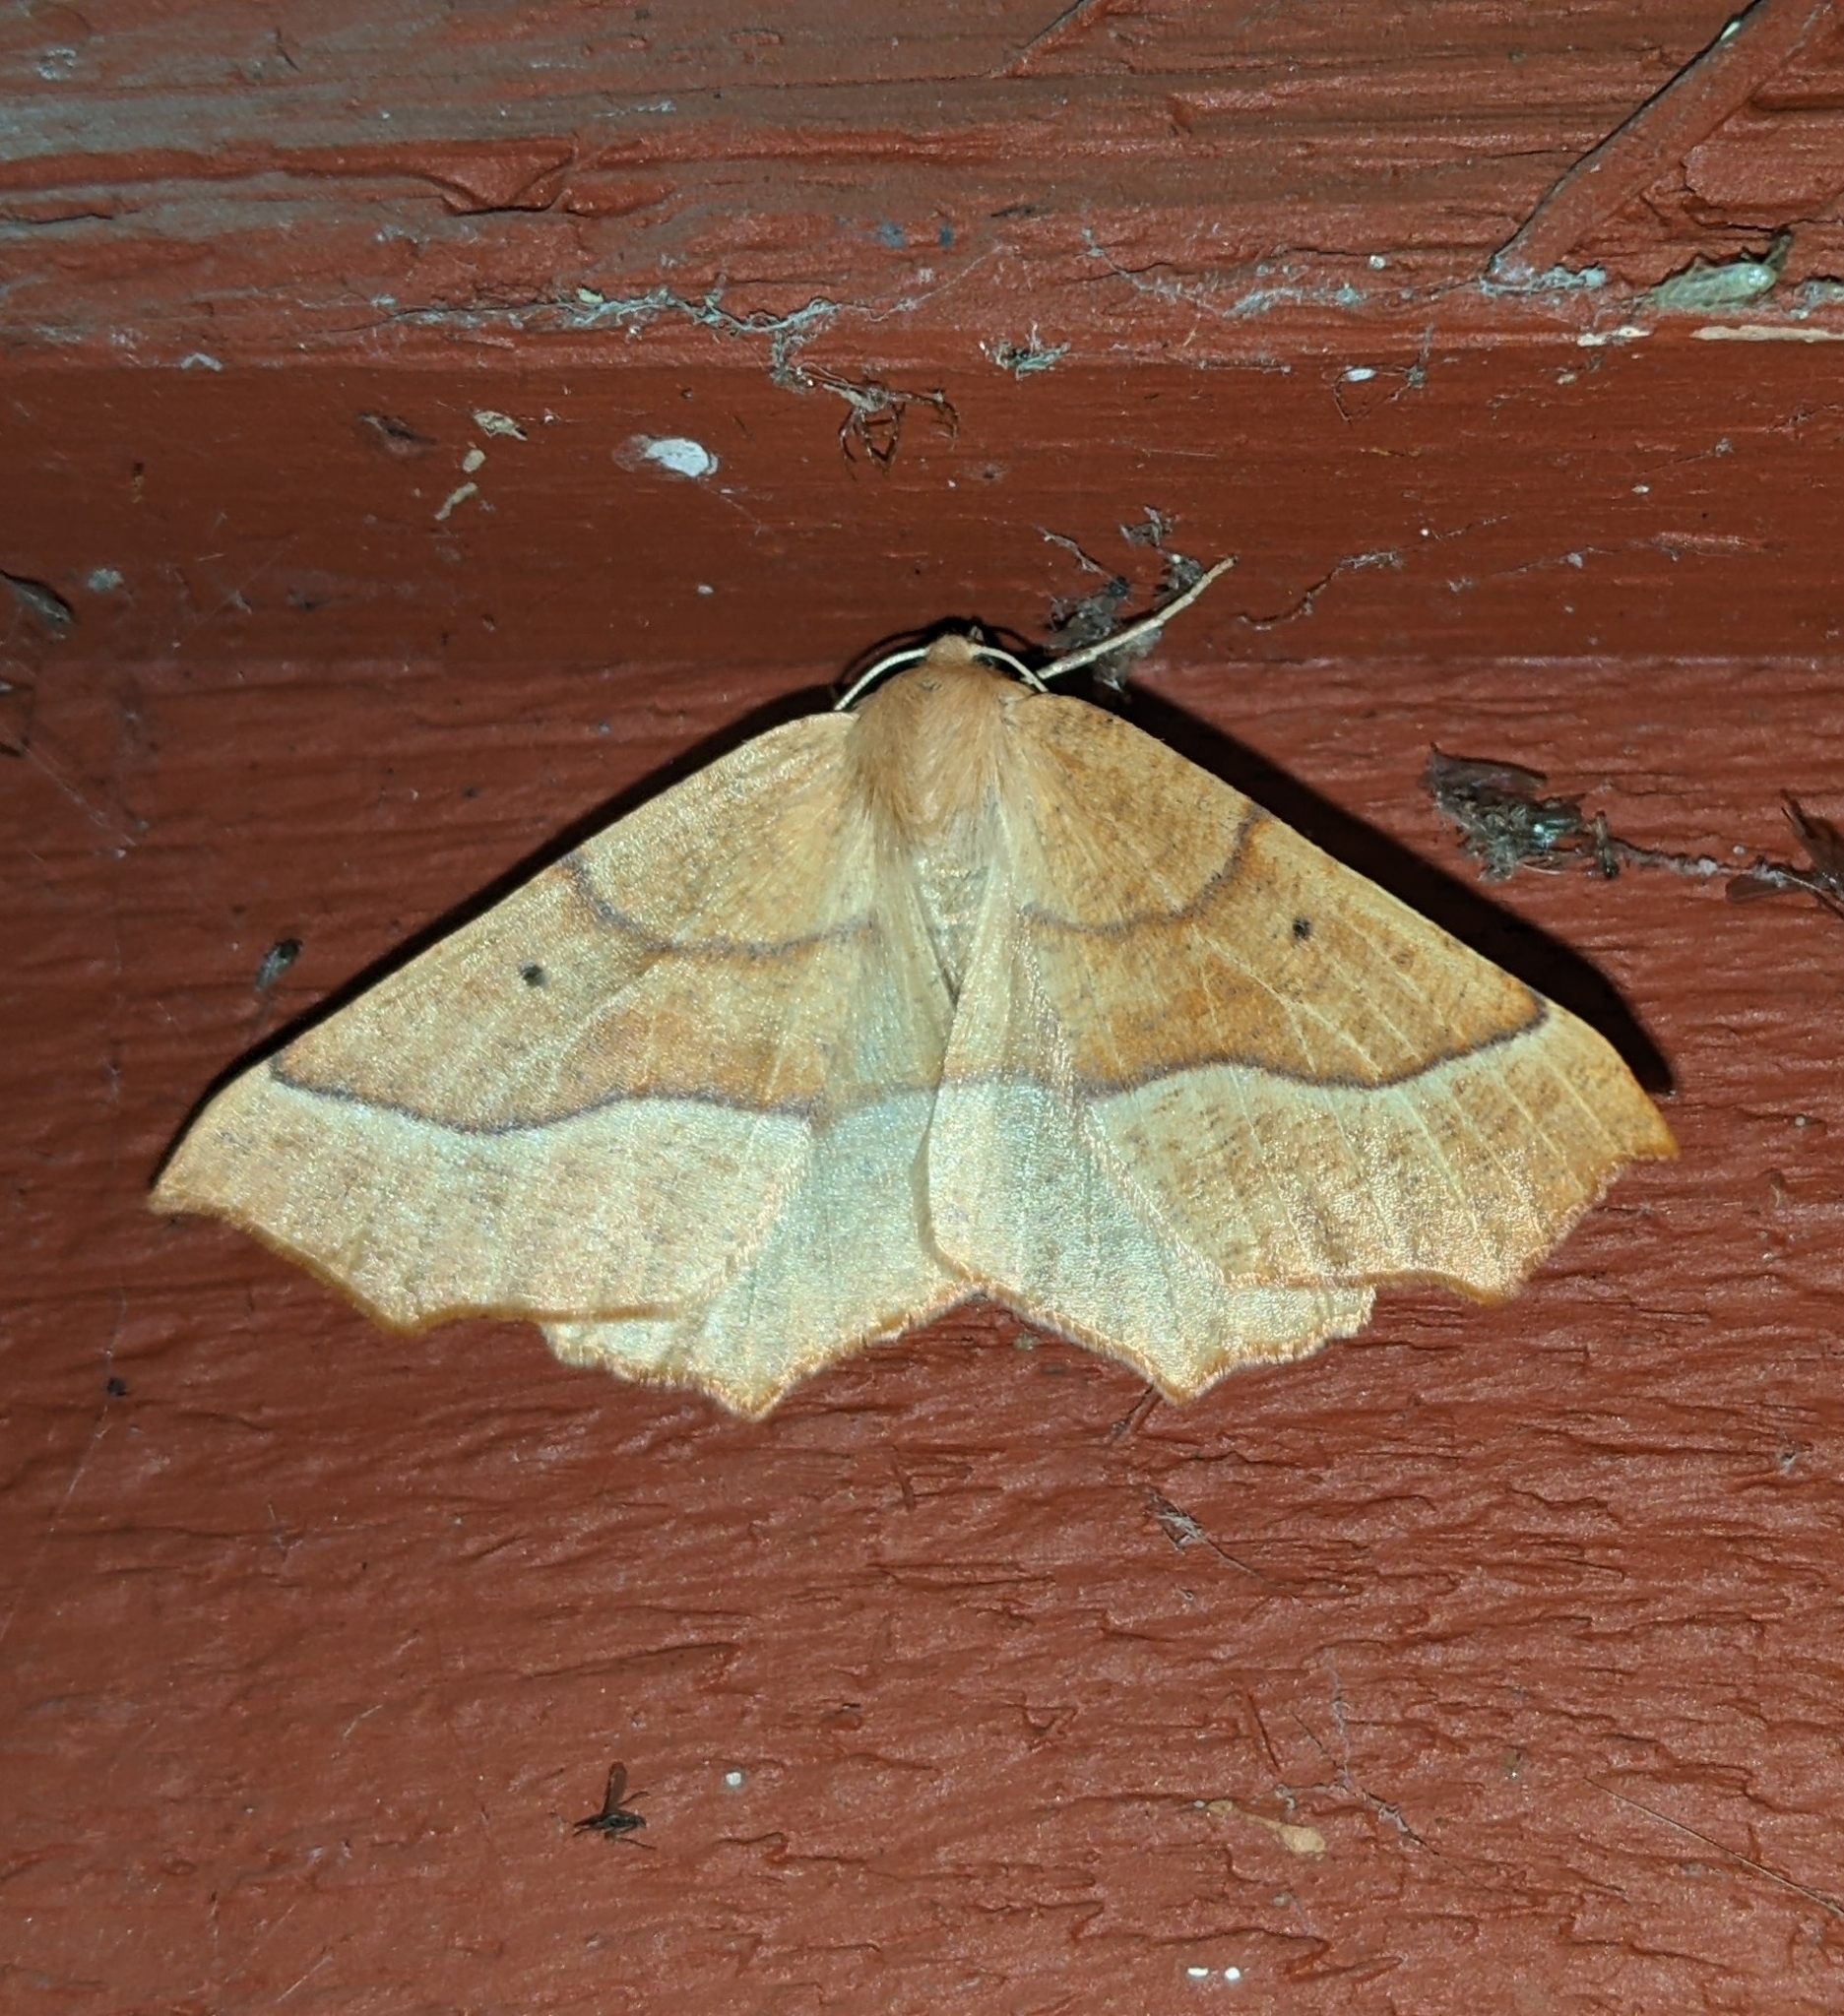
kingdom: Animalia
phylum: Arthropoda
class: Insecta
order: Lepidoptera
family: Geometridae
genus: Synaxis
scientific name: Synaxis jubararia
